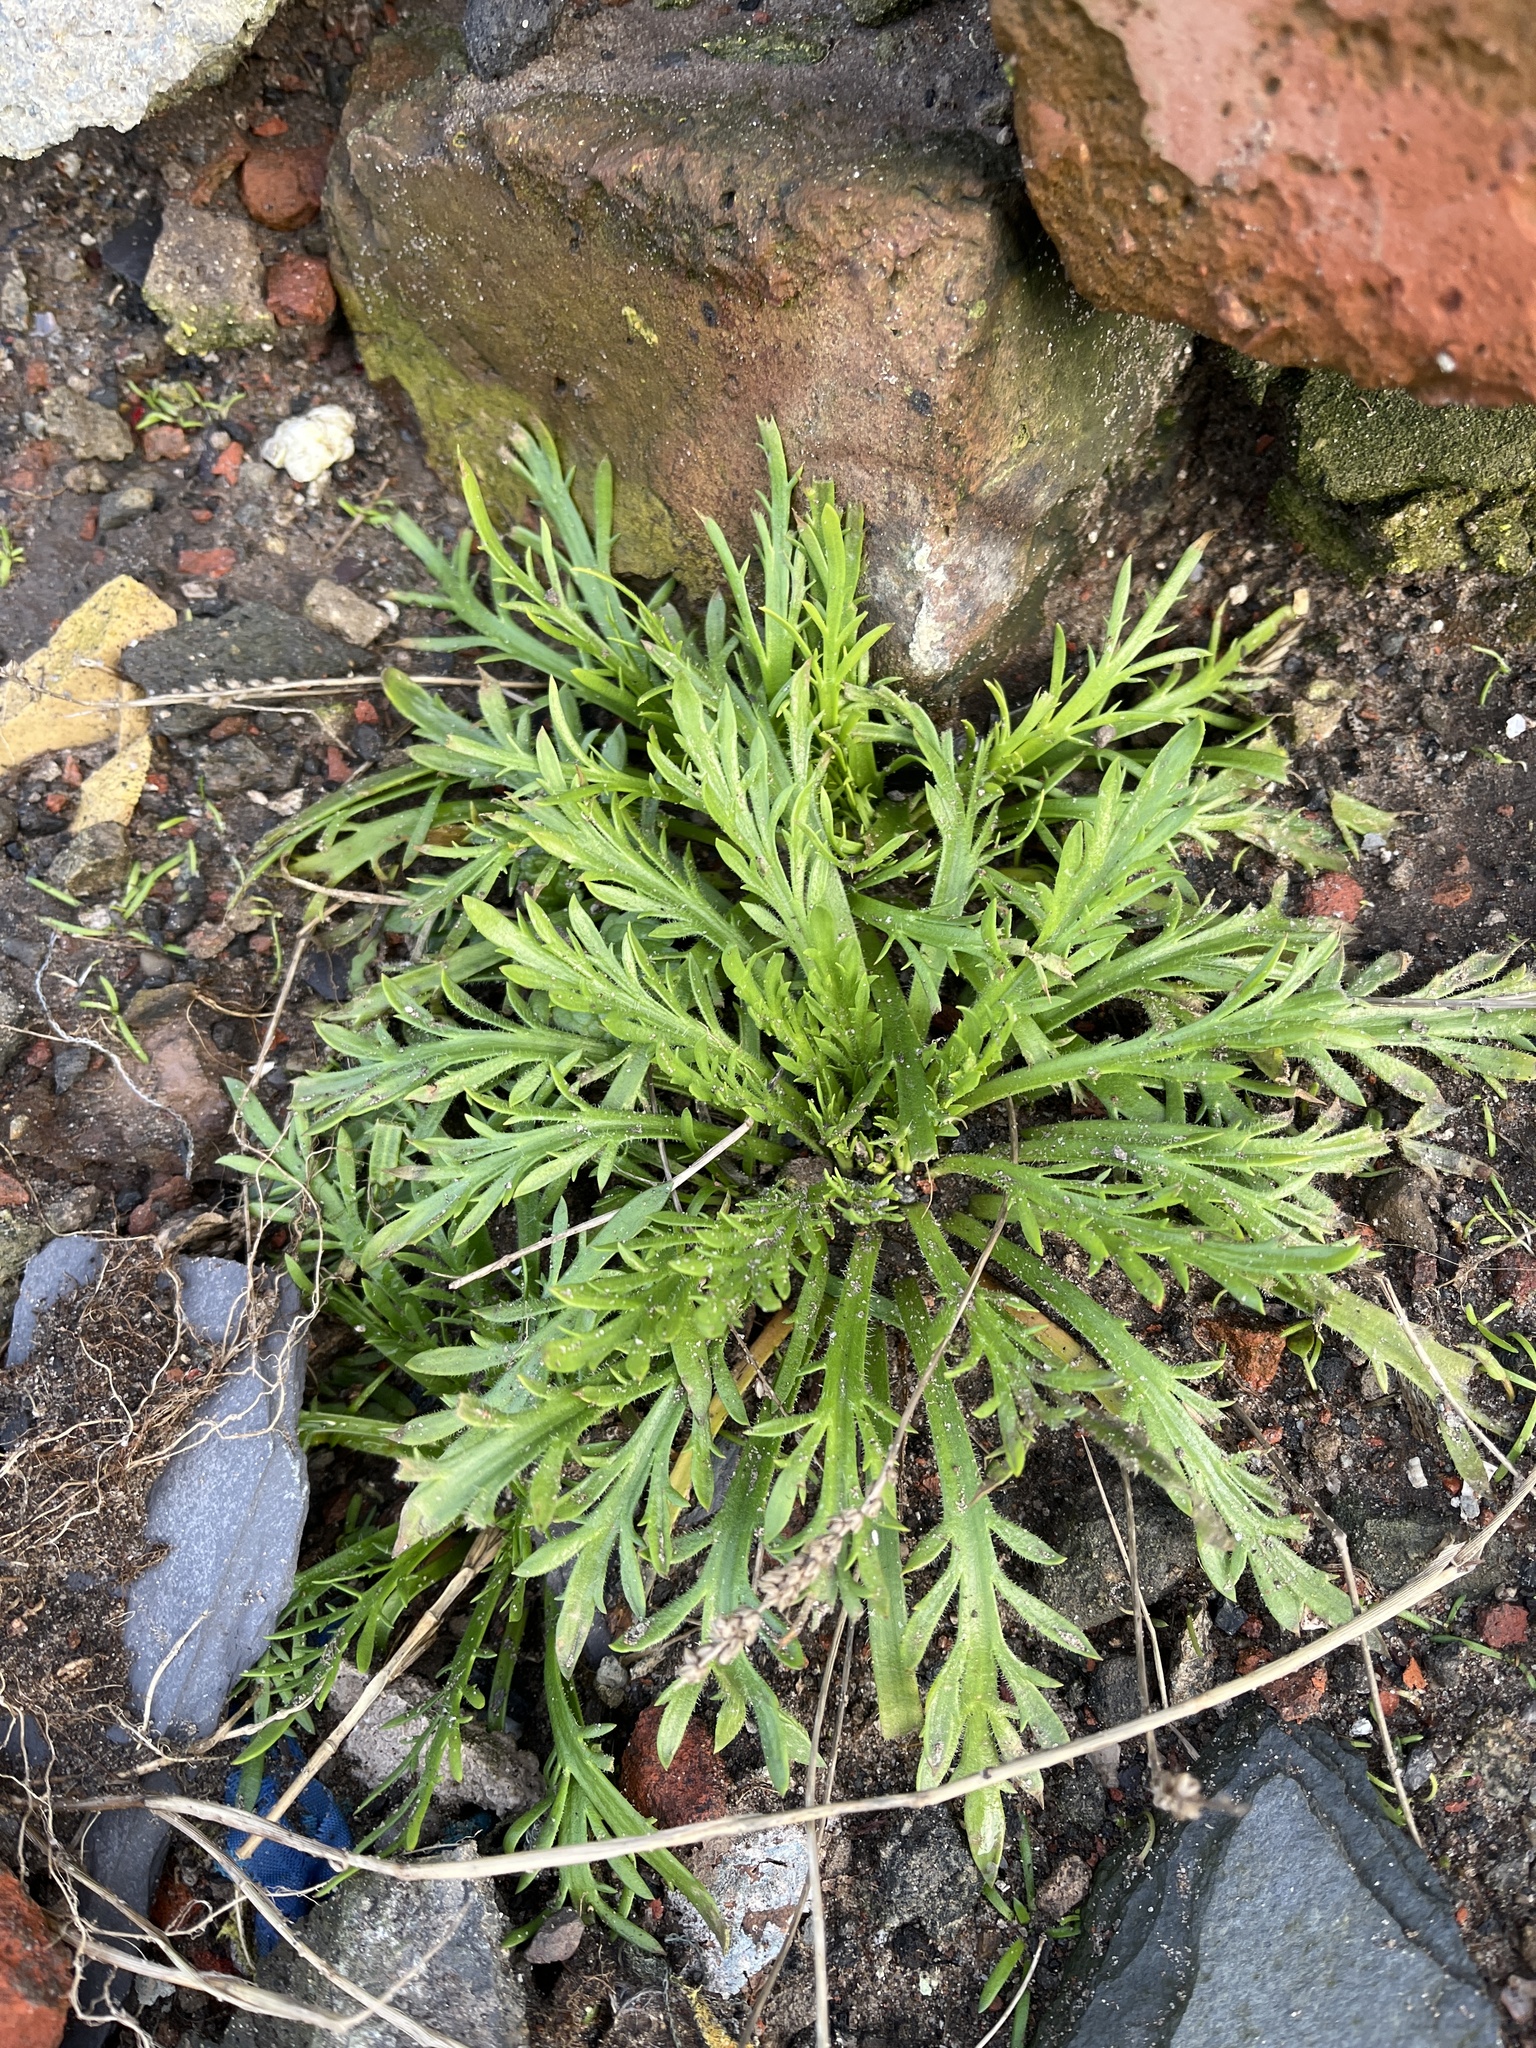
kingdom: Plantae
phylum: Tracheophyta
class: Magnoliopsida
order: Lamiales
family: Plantaginaceae
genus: Plantago
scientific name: Plantago coronopus
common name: Buck's-horn plantain
